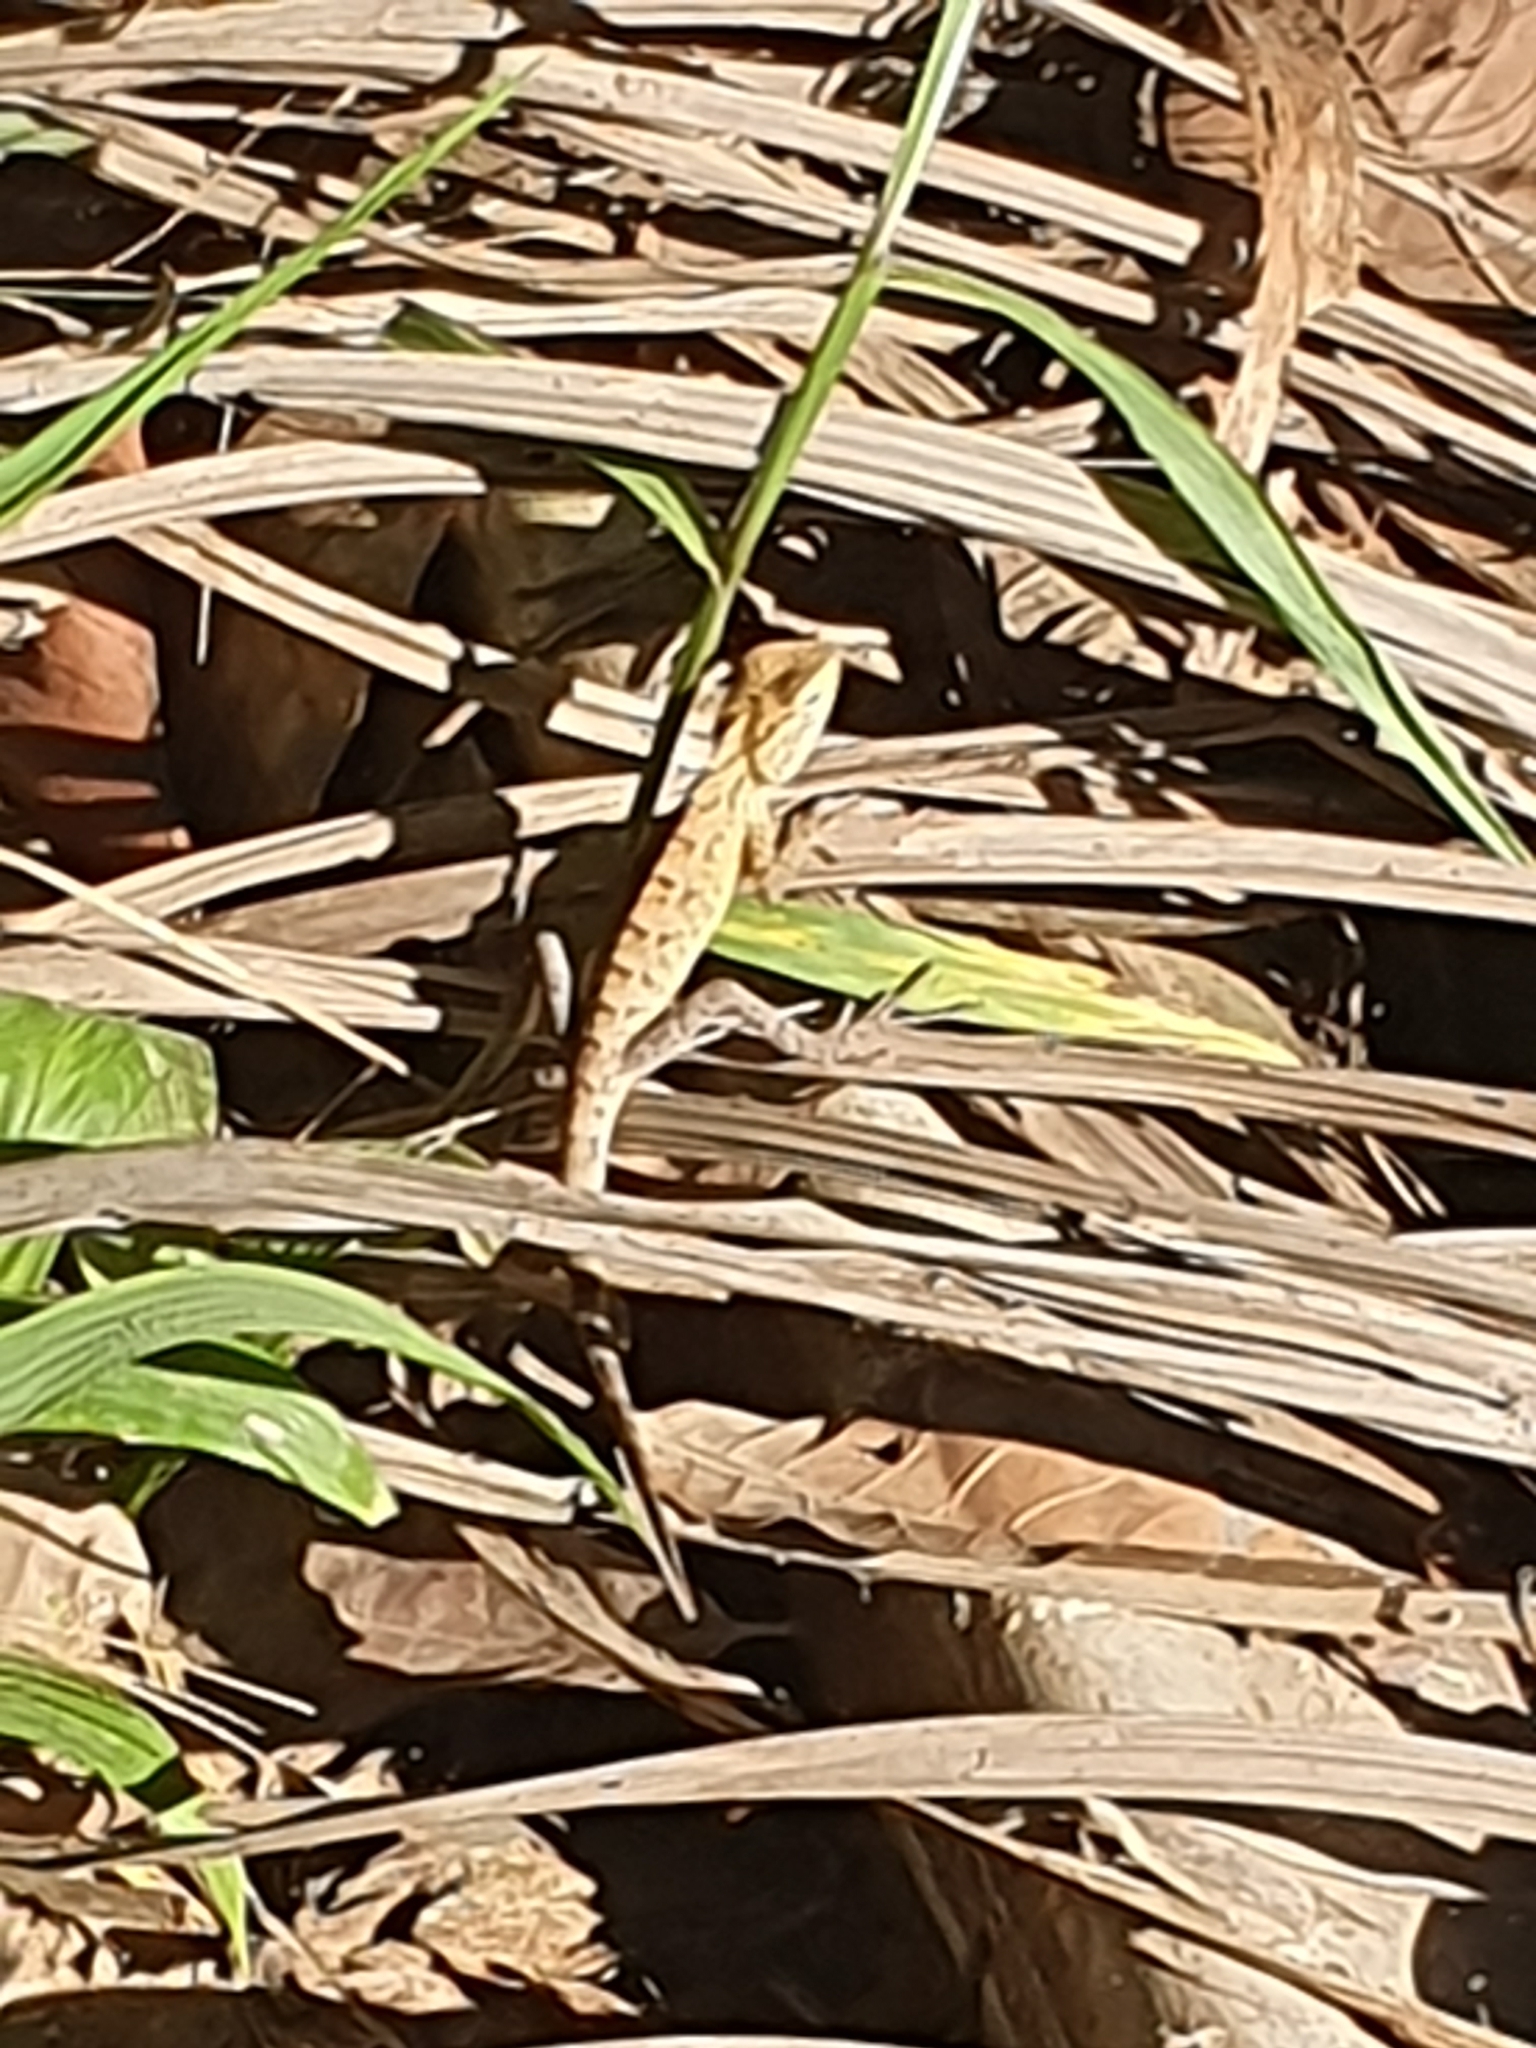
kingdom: Animalia
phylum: Chordata
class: Squamata
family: Agamidae
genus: Calotes
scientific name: Calotes versicolor
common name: Oriental garden lizard
